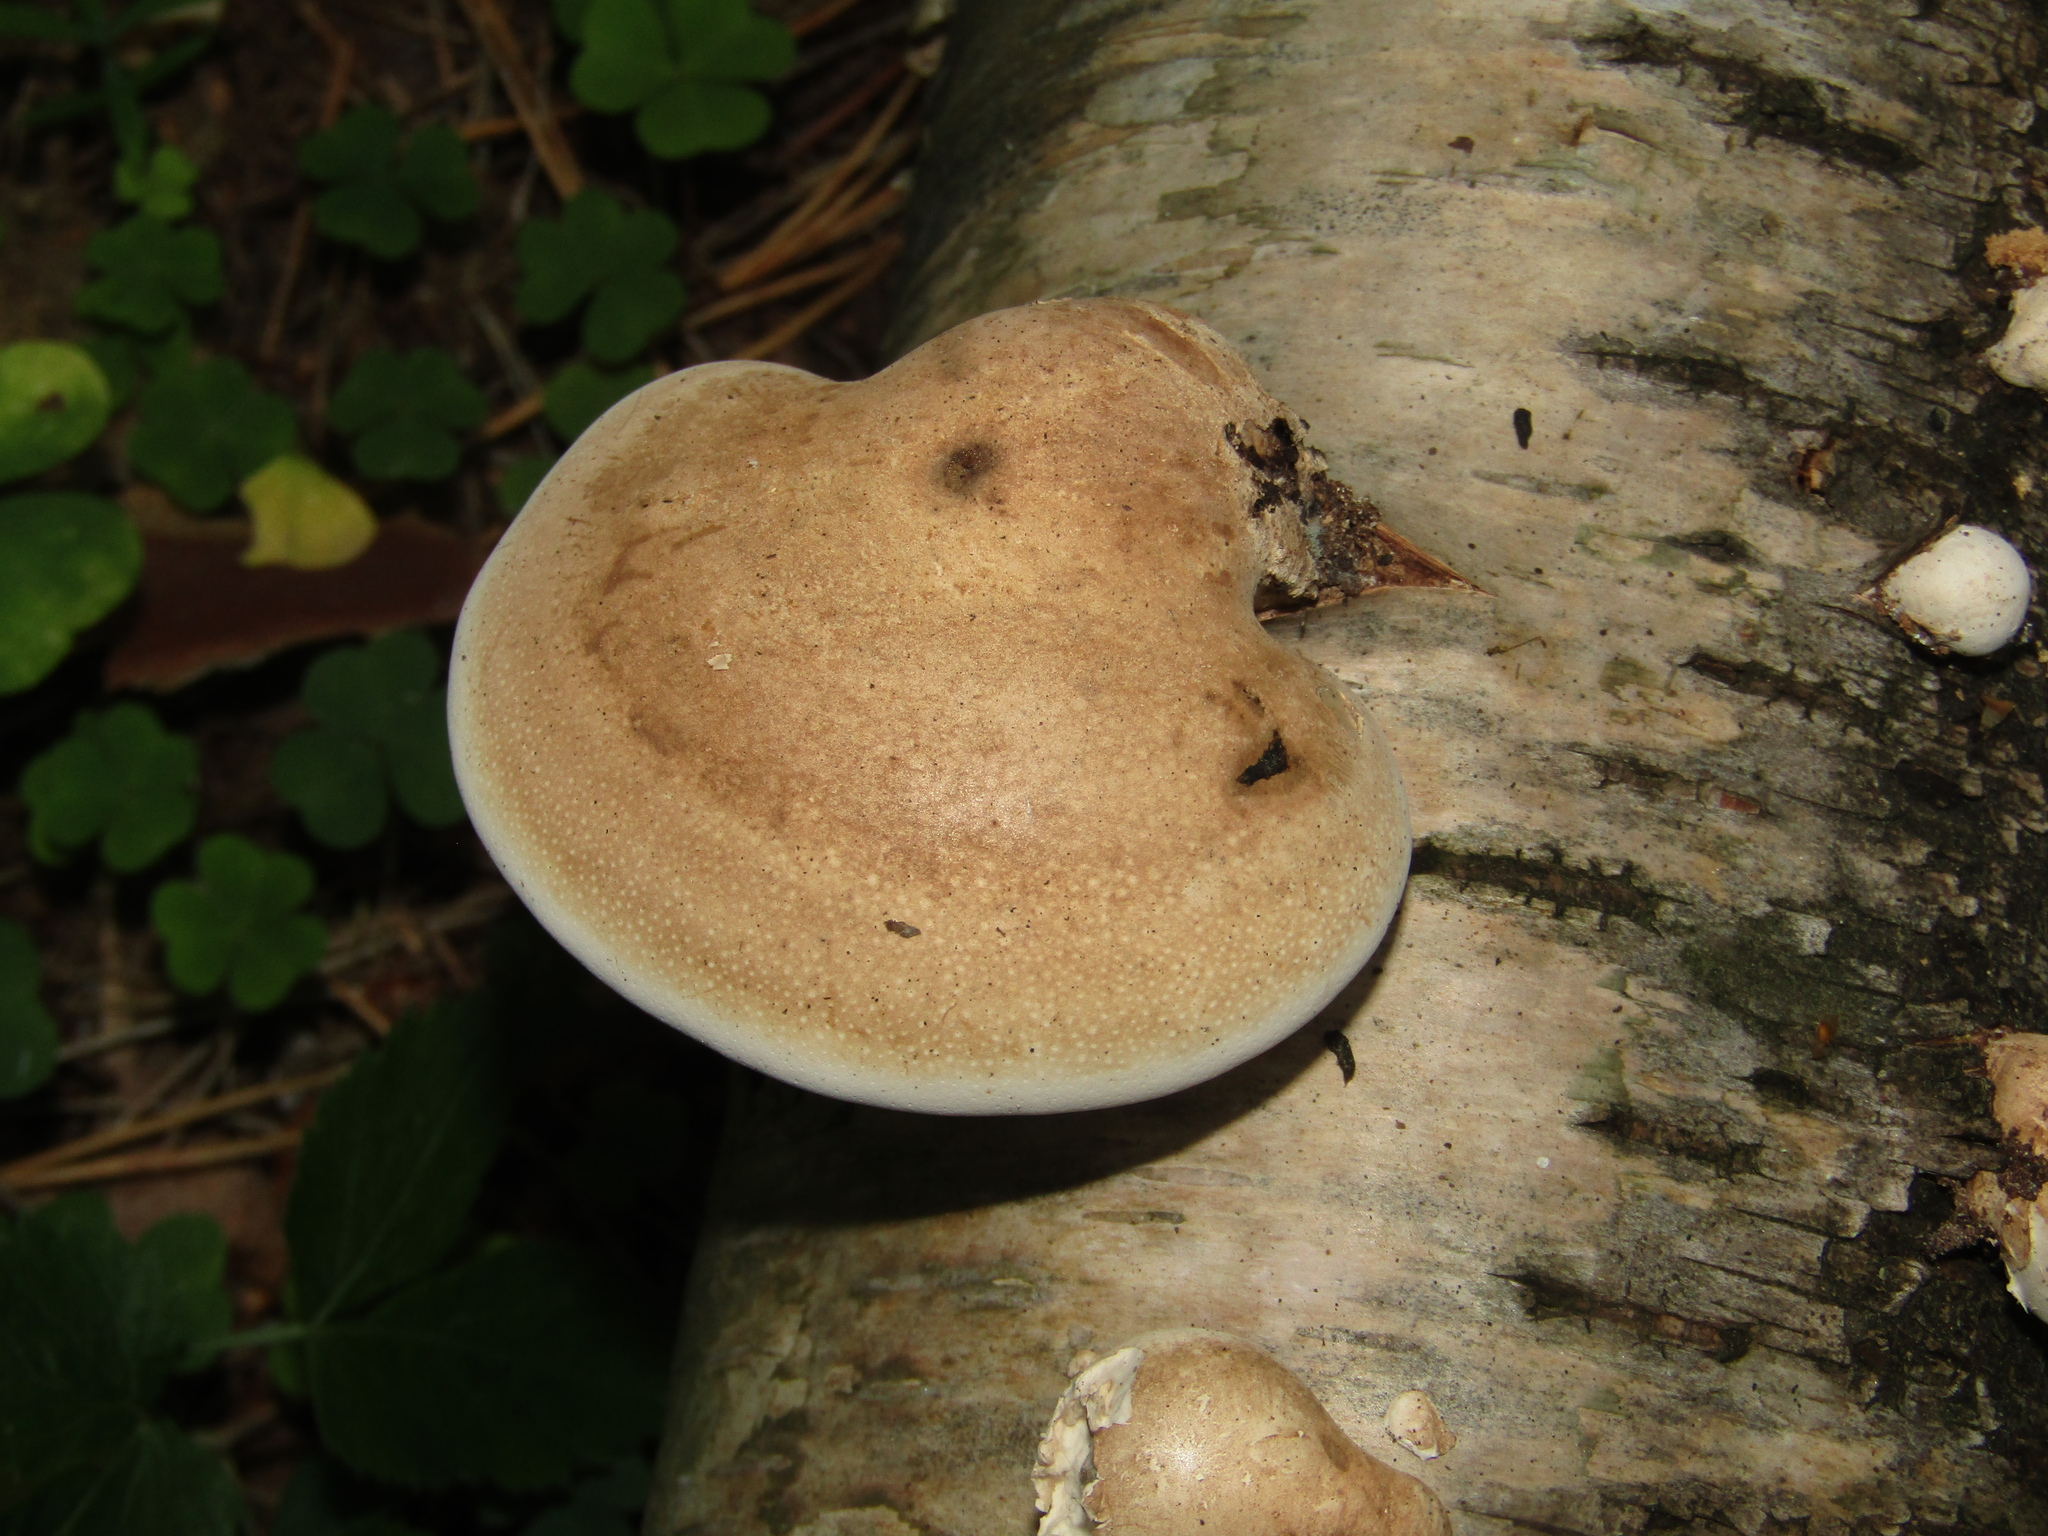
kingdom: Fungi
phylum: Basidiomycota
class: Agaricomycetes
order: Polyporales
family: Fomitopsidaceae
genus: Fomitopsis
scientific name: Fomitopsis betulina
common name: Birch polypore
